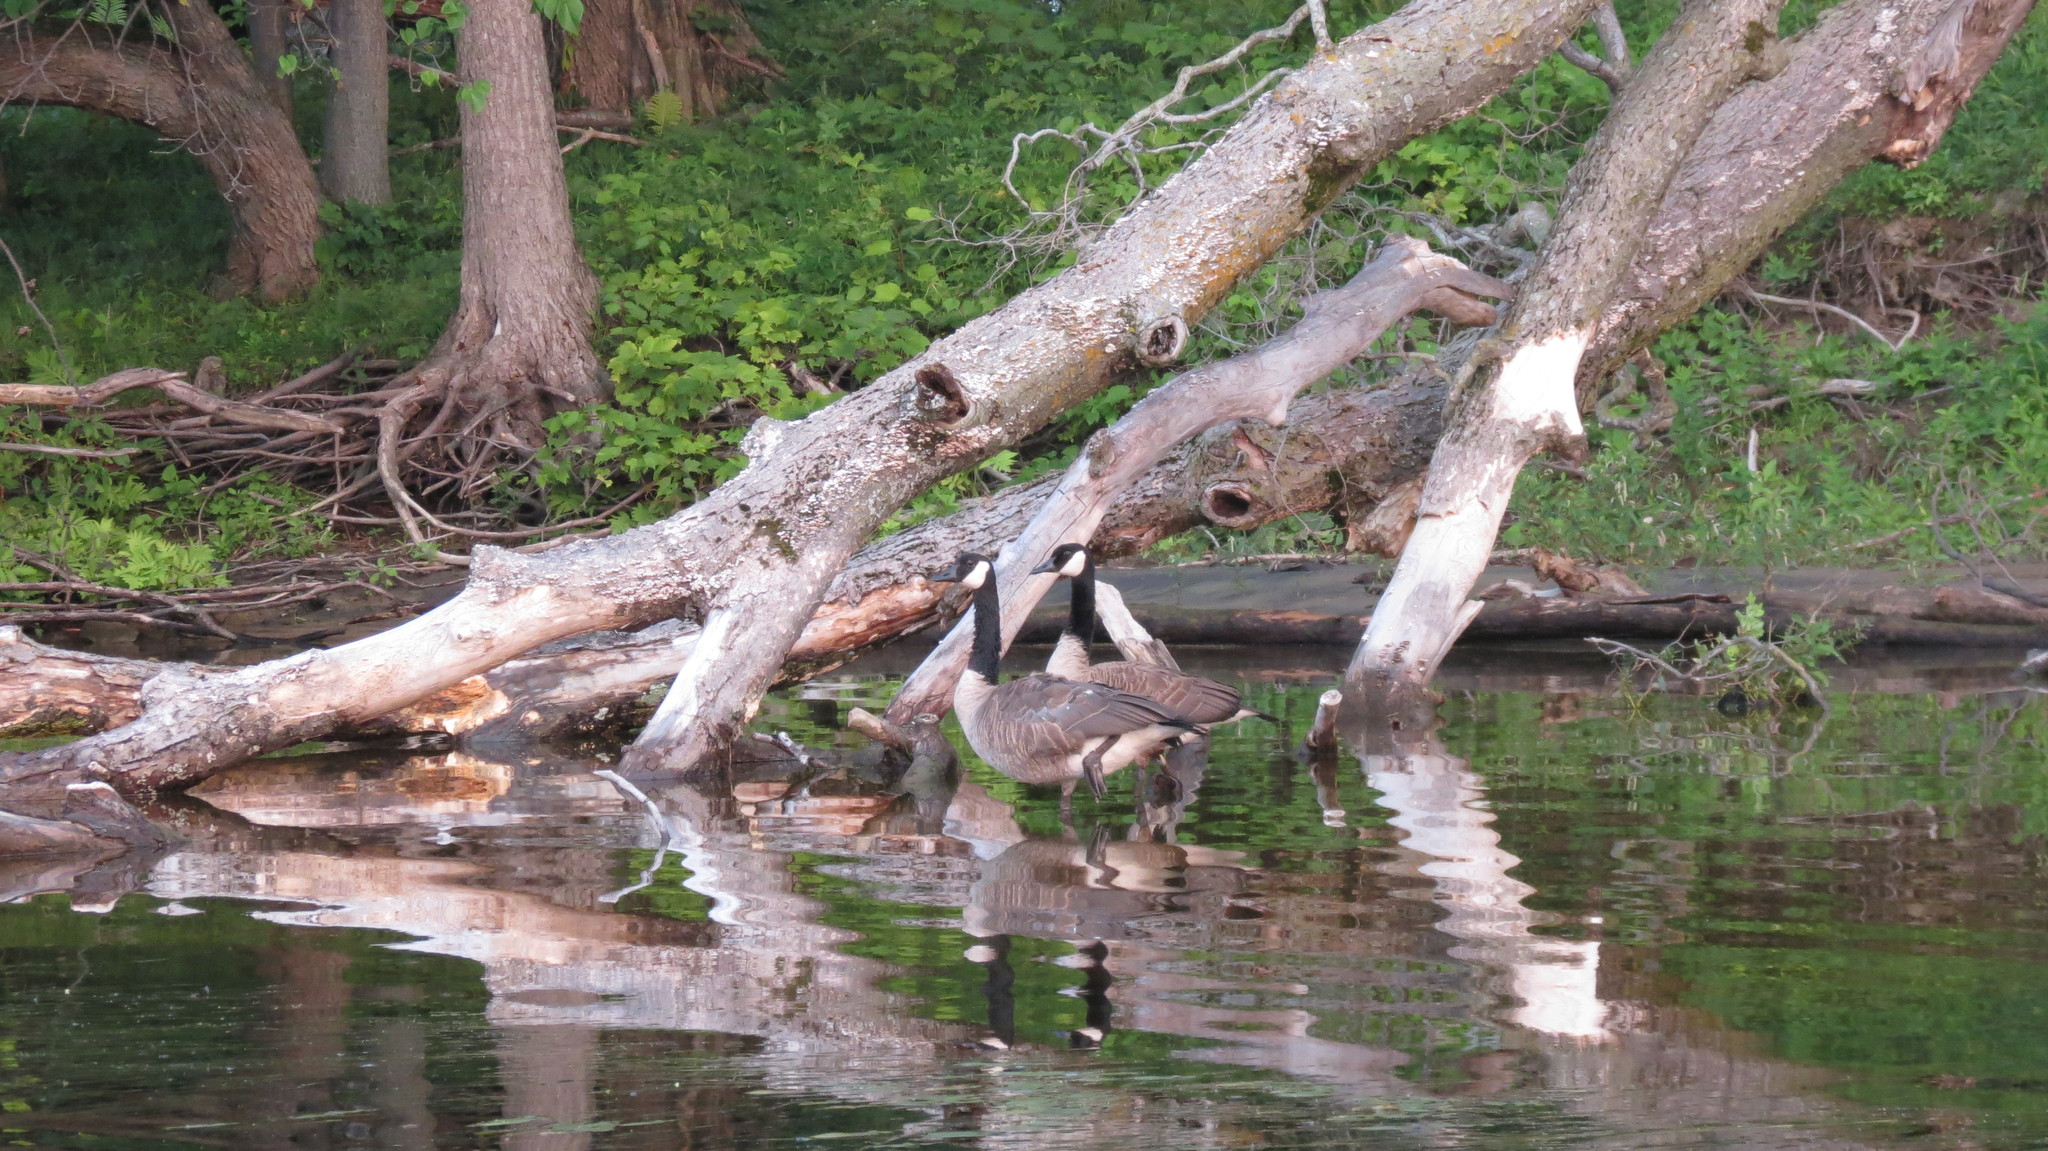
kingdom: Animalia
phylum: Chordata
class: Aves
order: Anseriformes
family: Anatidae
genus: Branta
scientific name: Branta canadensis
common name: Canada goose
